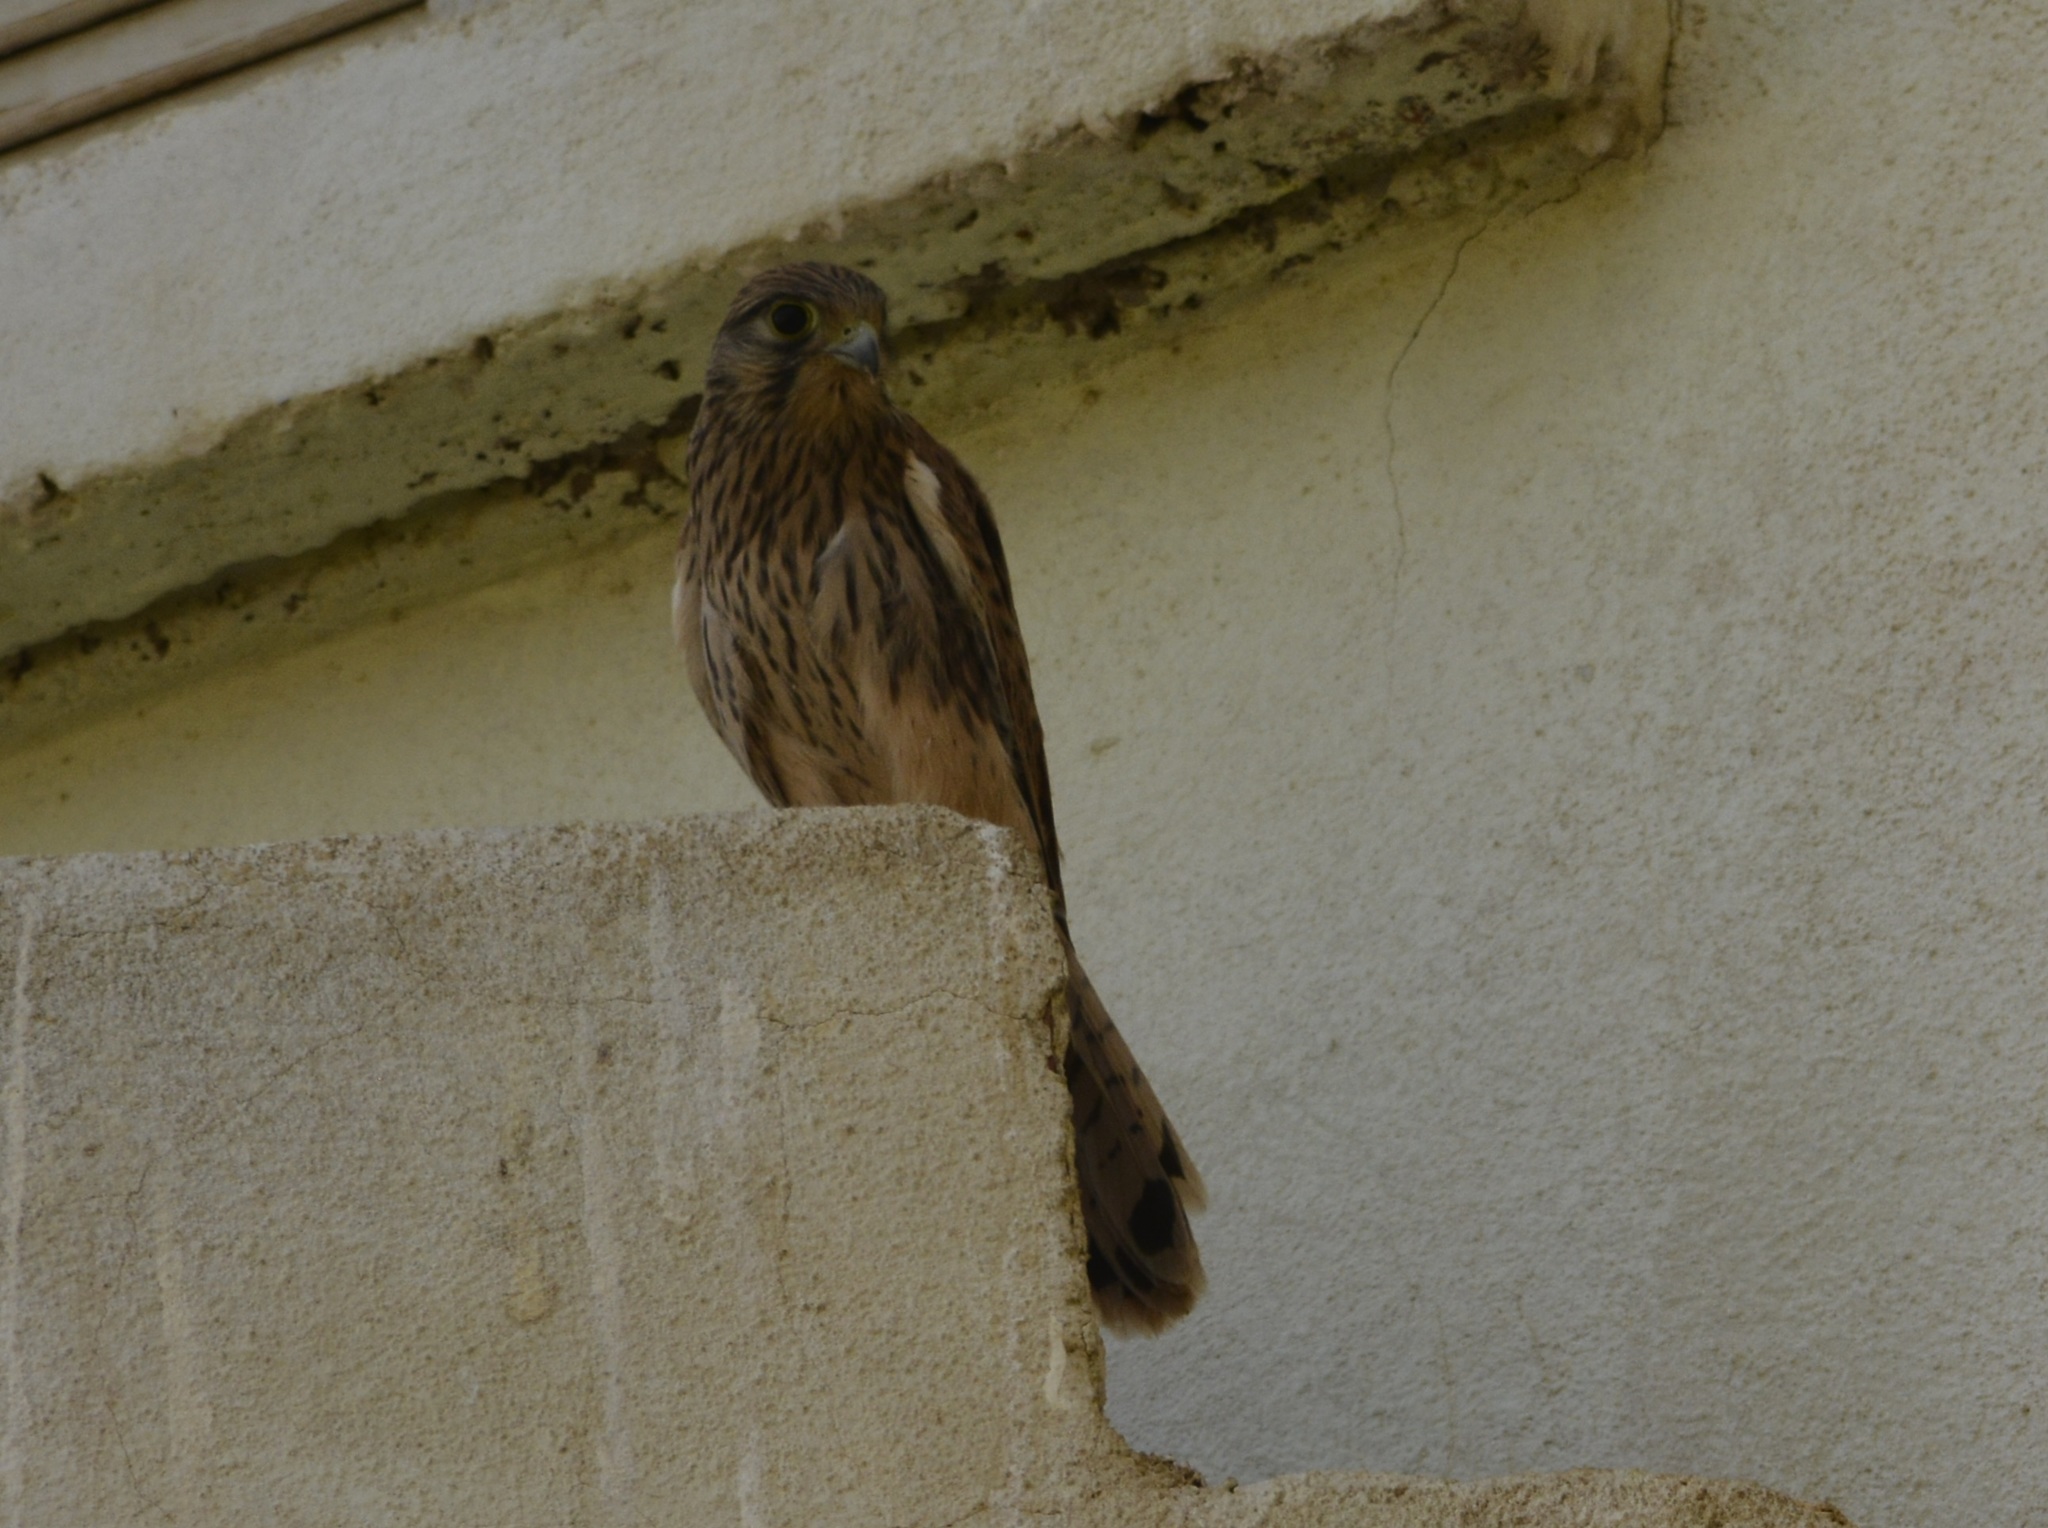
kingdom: Animalia
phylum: Chordata
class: Aves
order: Falconiformes
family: Falconidae
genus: Falco
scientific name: Falco tinnunculus
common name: Common kestrel
